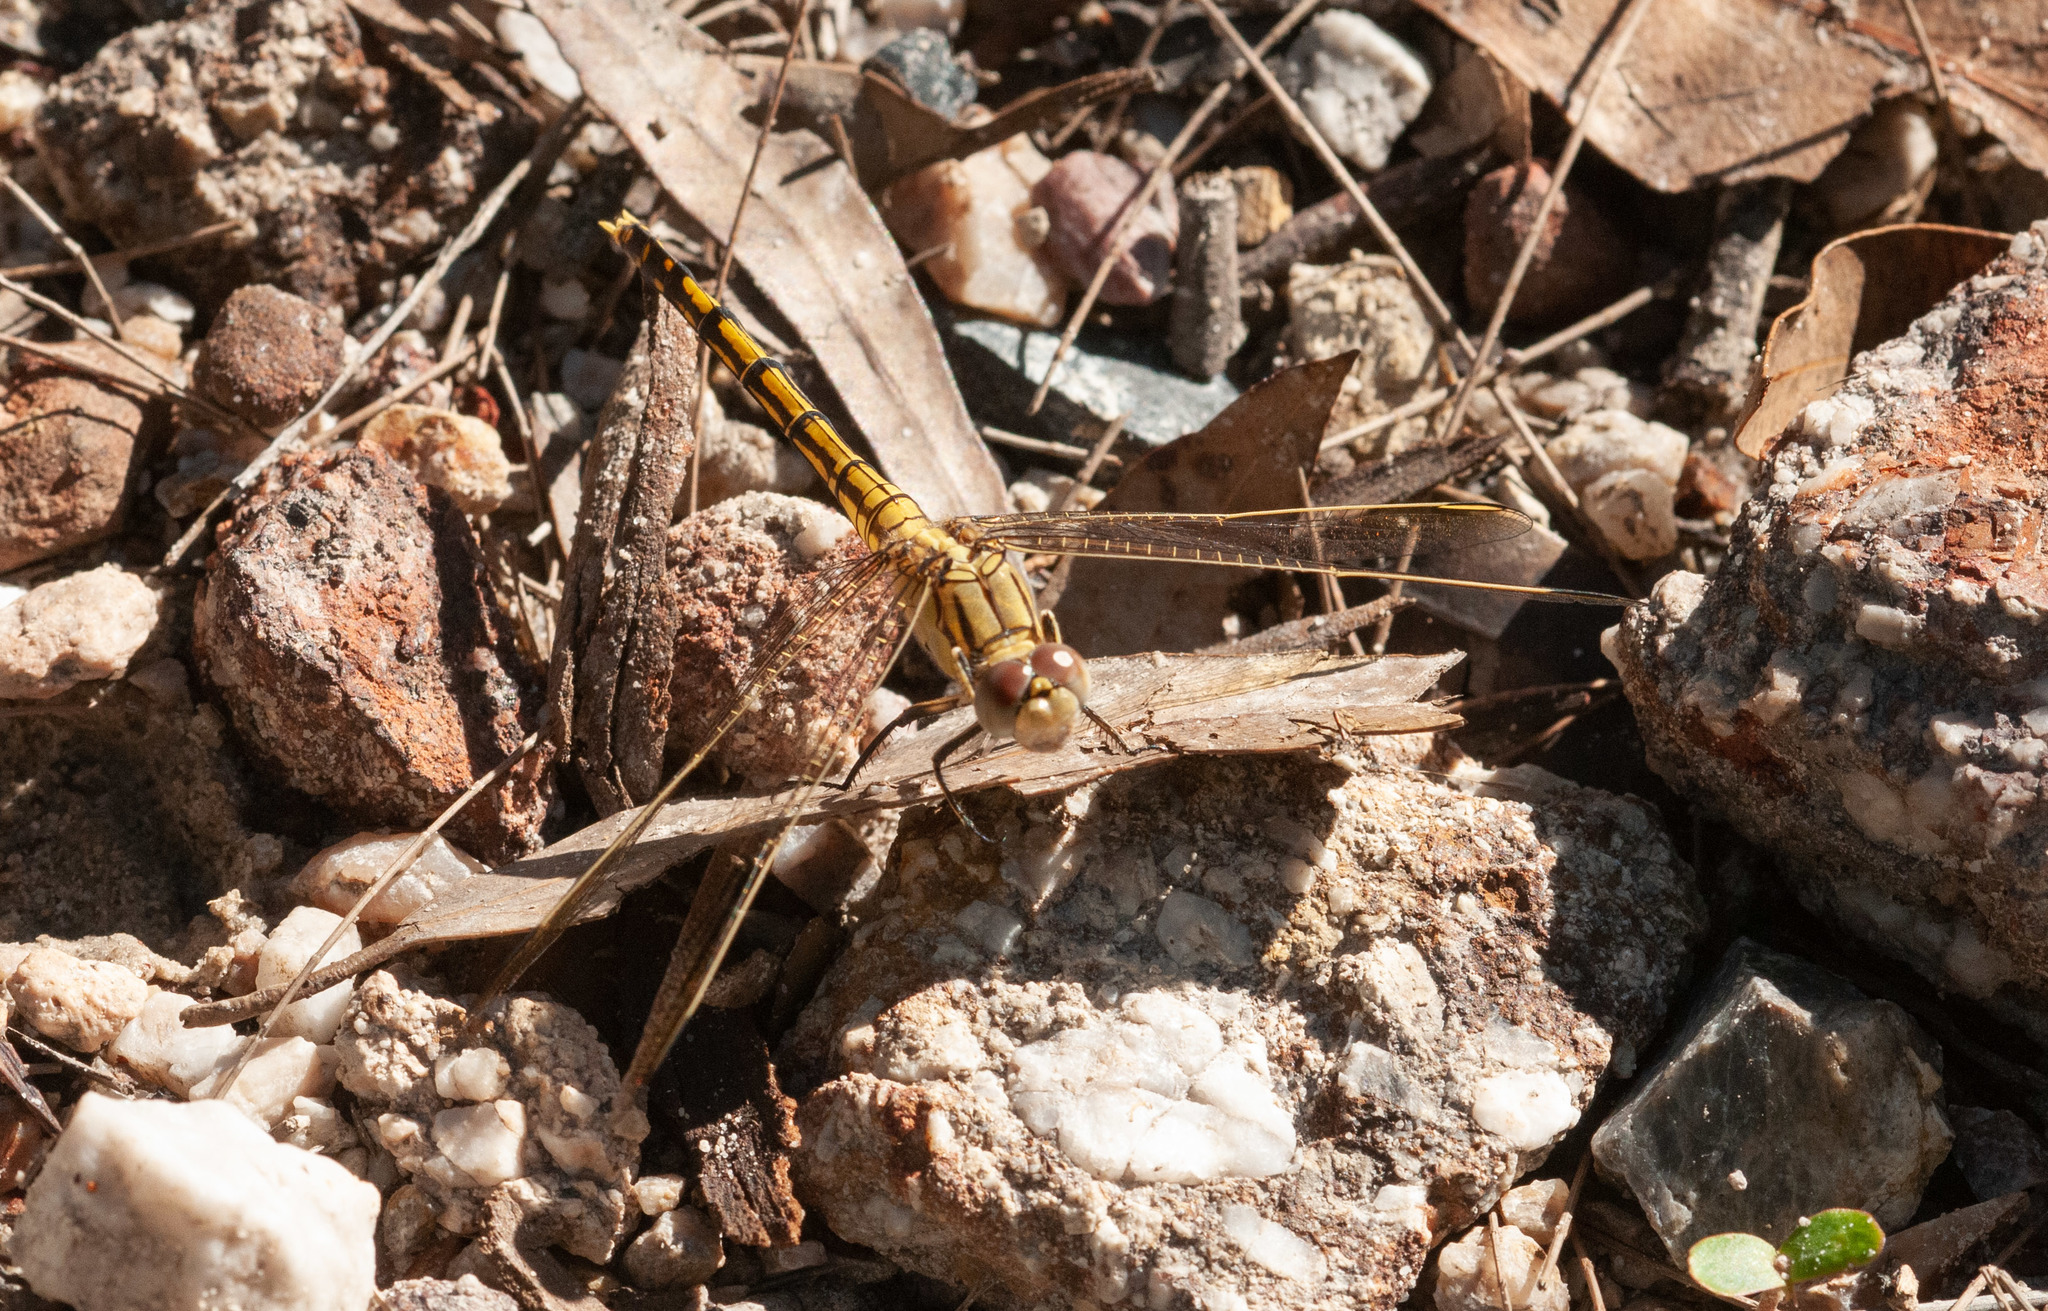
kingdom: Animalia
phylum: Arthropoda
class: Insecta
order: Odonata
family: Libellulidae
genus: Orthetrum
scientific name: Orthetrum caledonicum
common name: Blue skimmer
